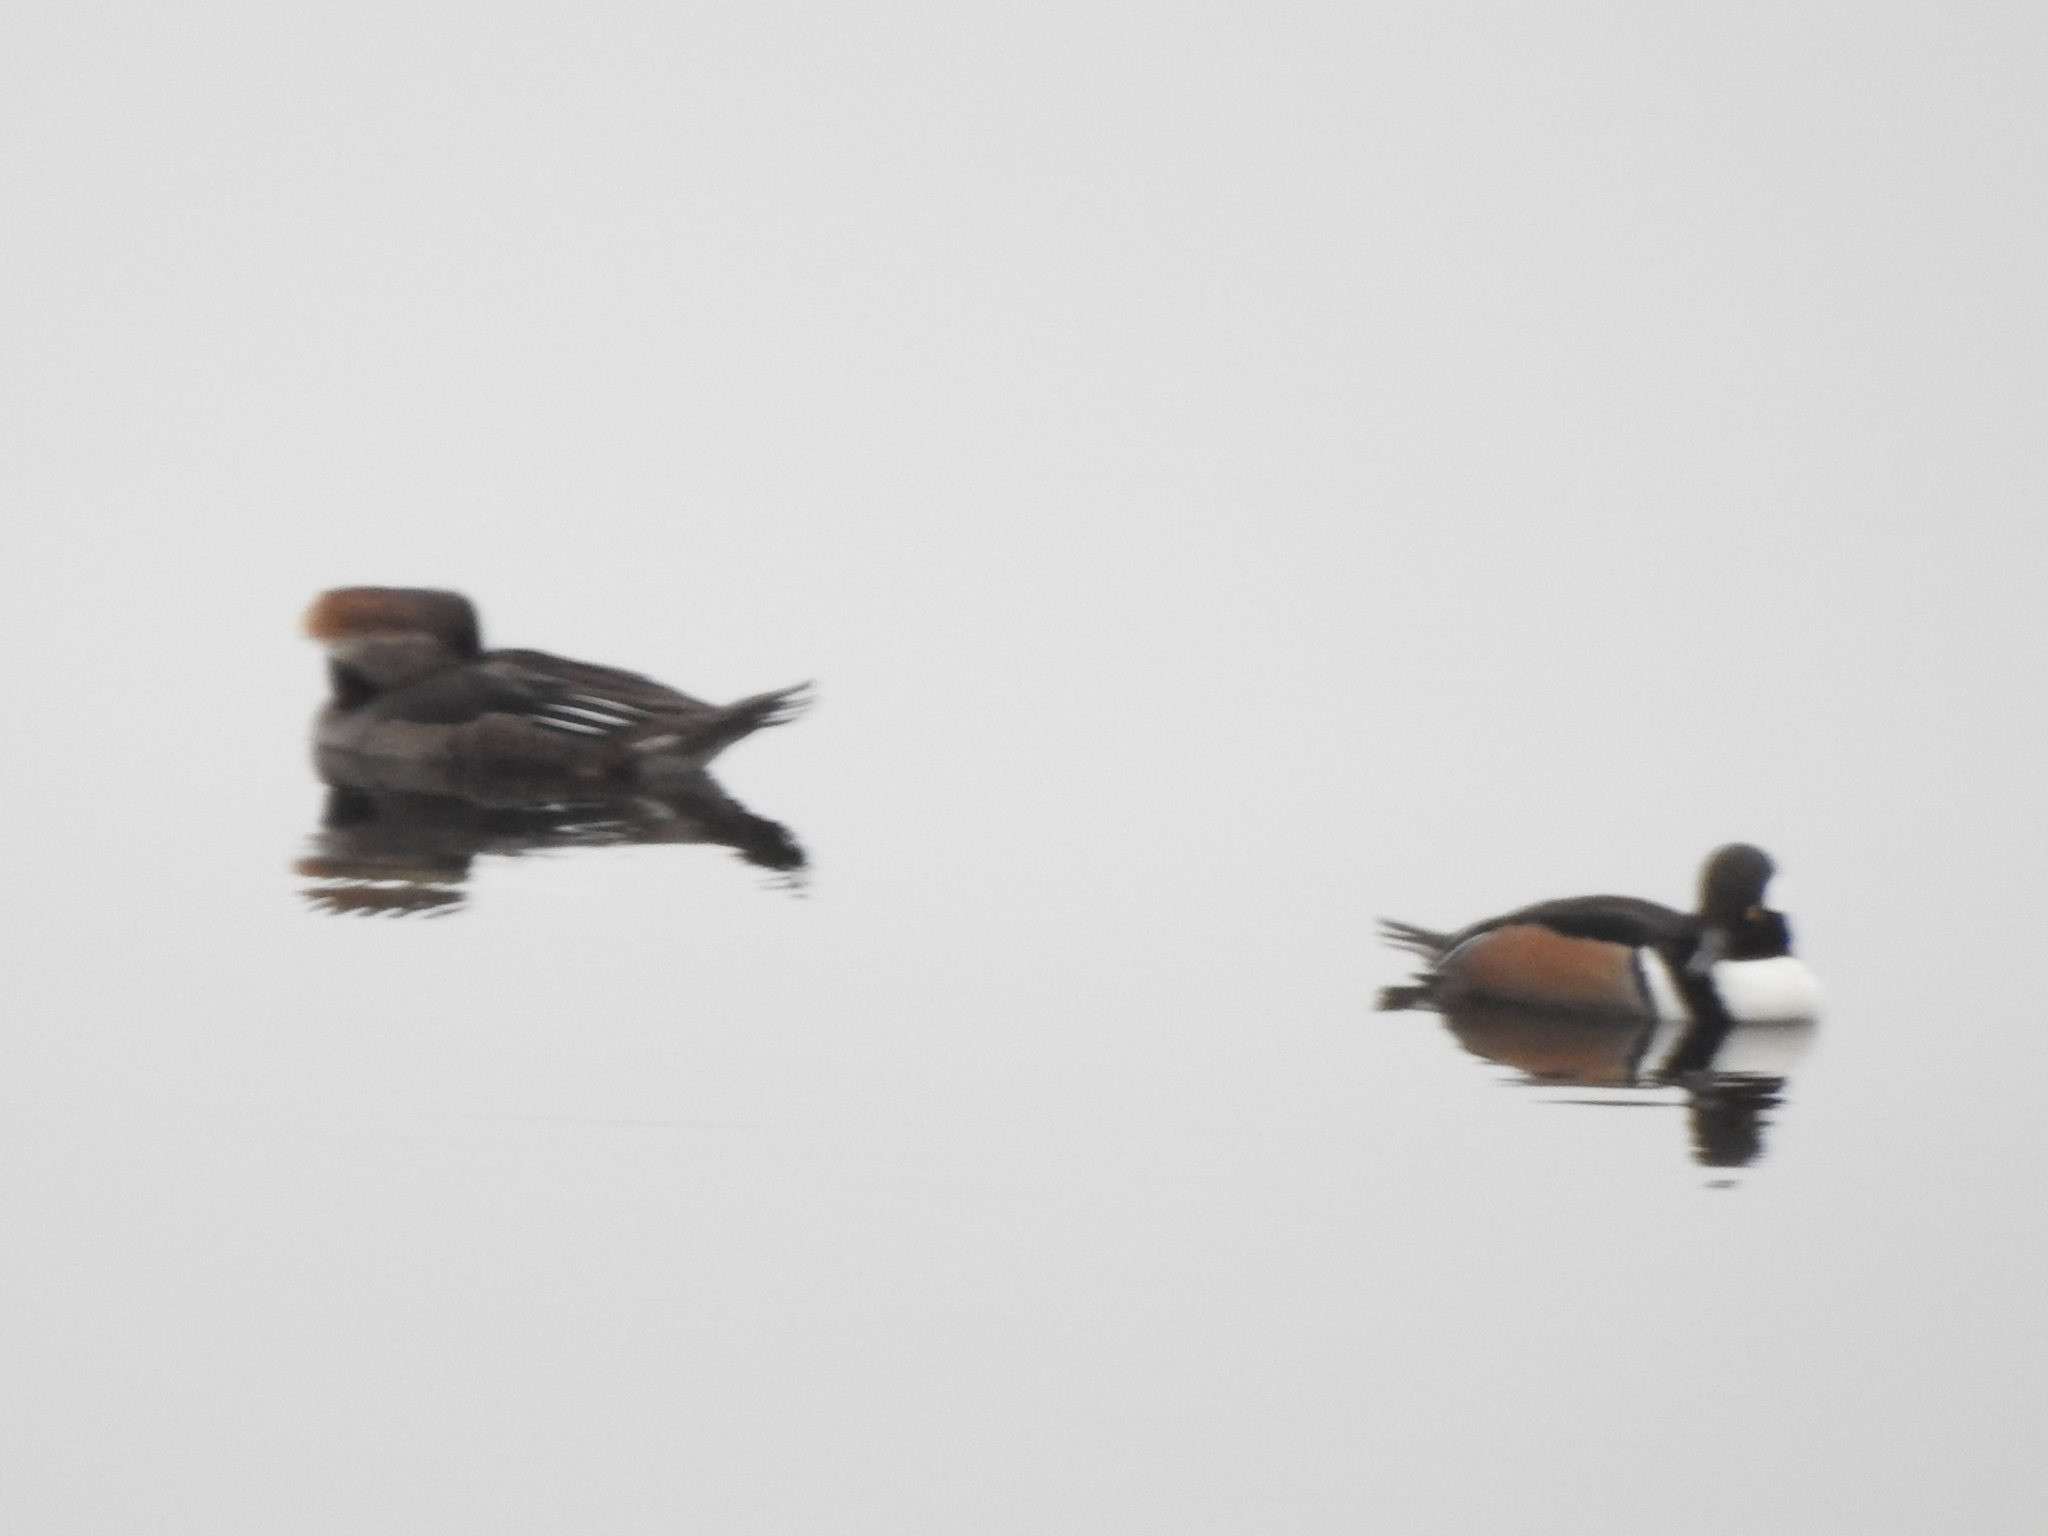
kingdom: Animalia
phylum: Chordata
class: Aves
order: Anseriformes
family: Anatidae
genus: Lophodytes
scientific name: Lophodytes cucullatus
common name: Hooded merganser
